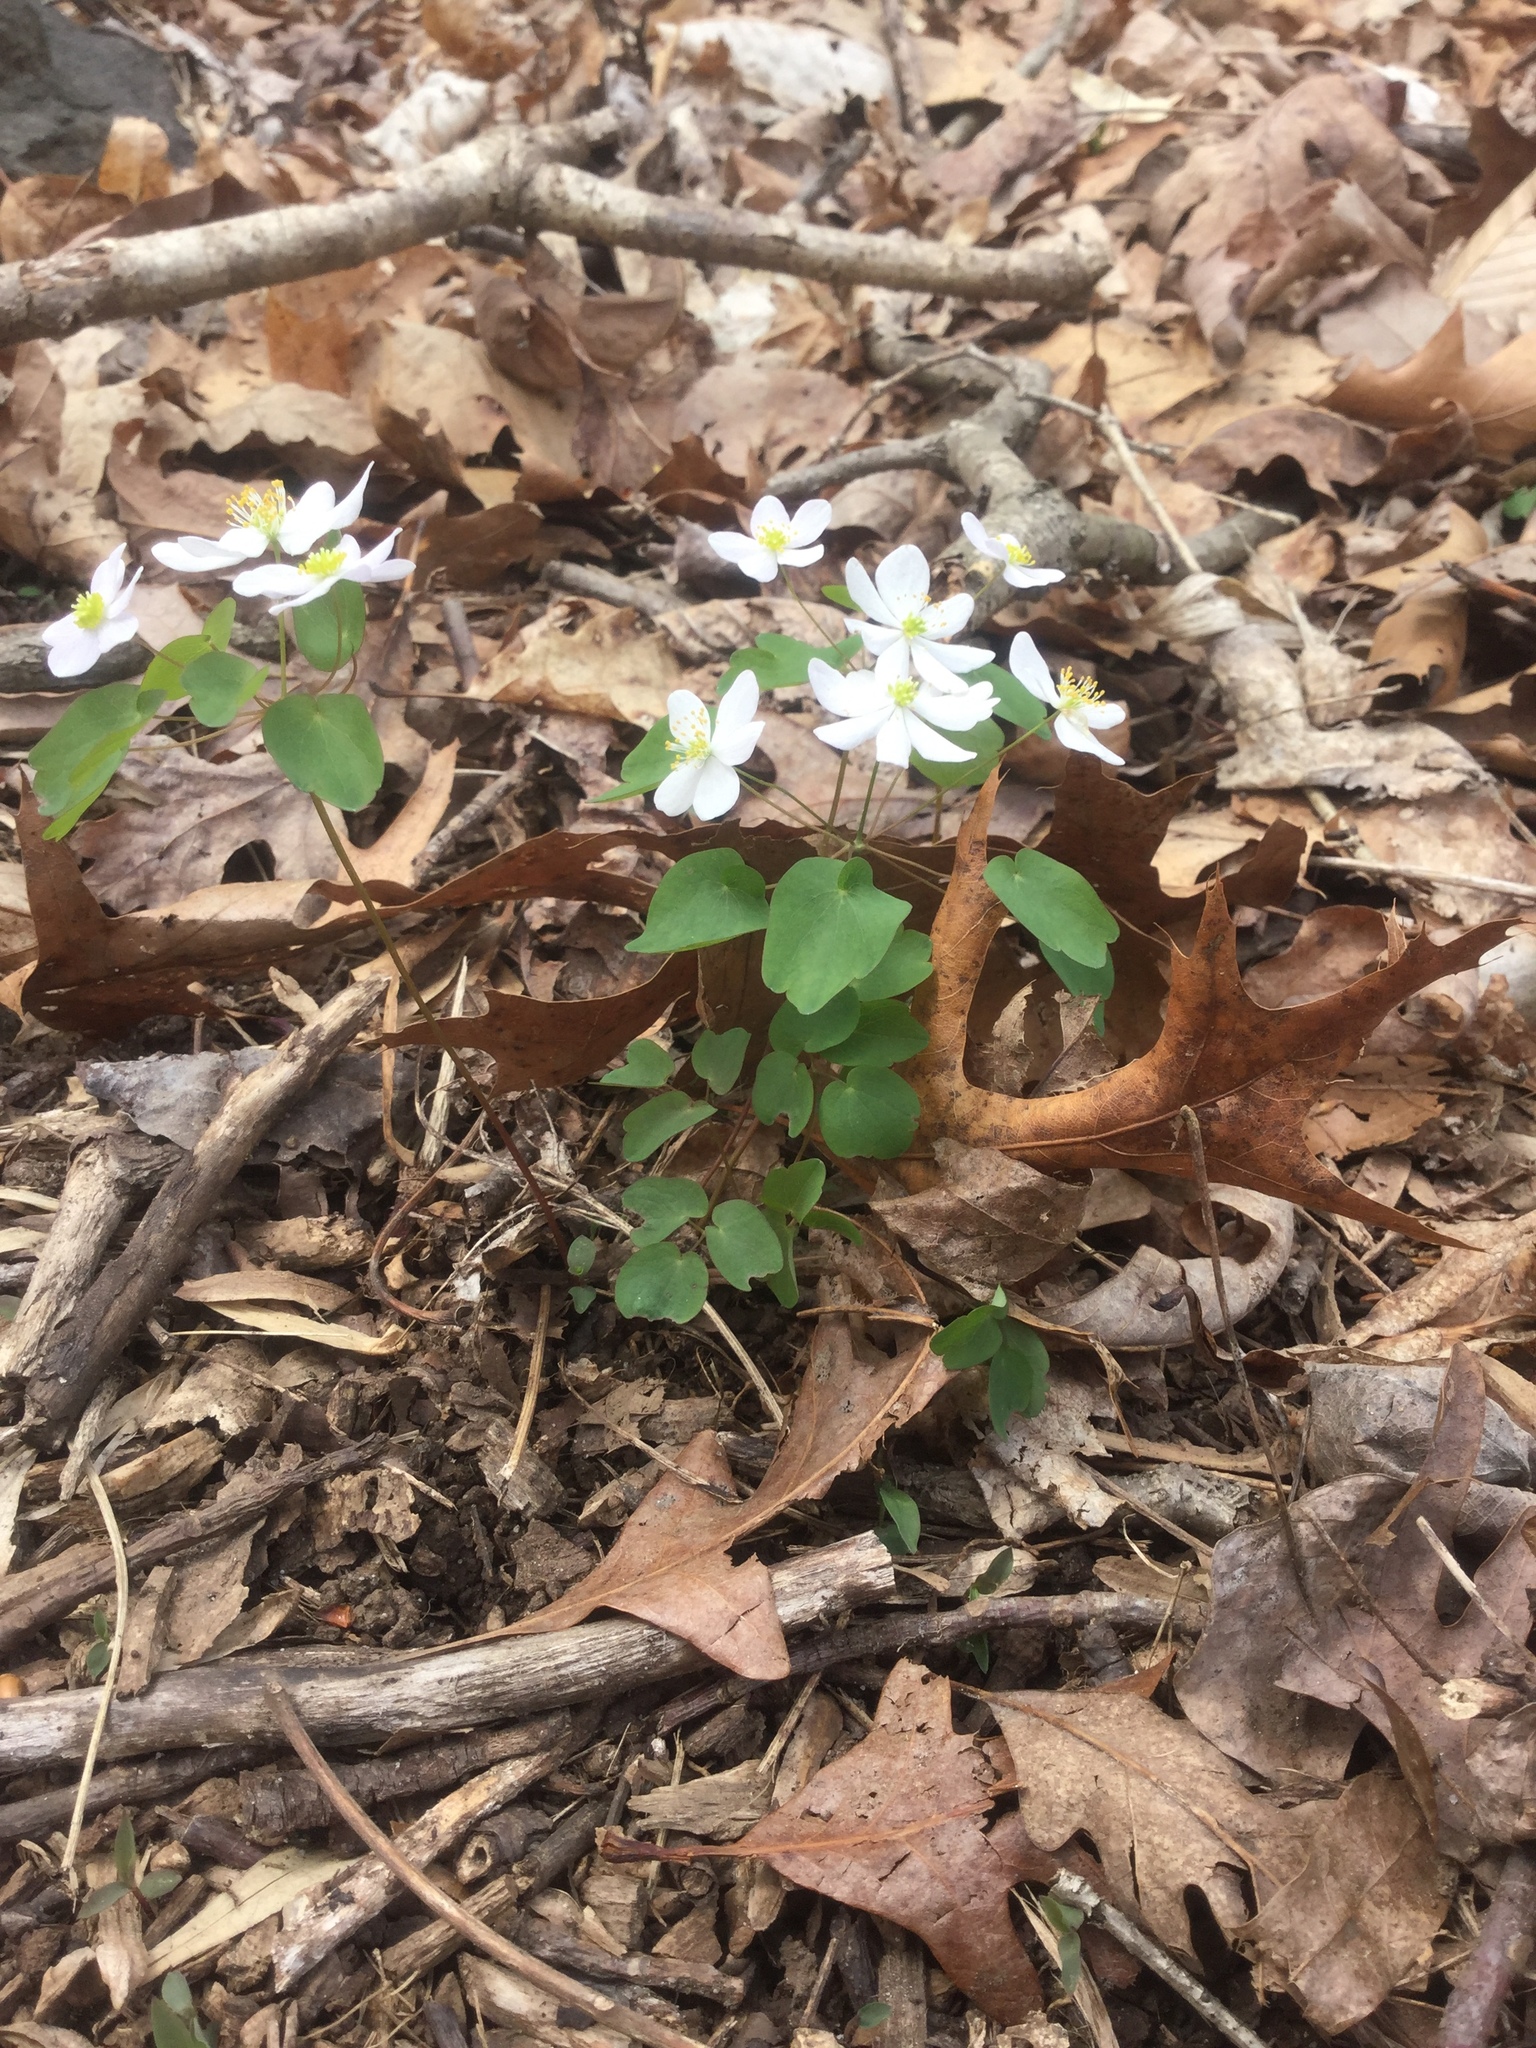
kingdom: Plantae
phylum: Tracheophyta
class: Magnoliopsida
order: Ranunculales
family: Ranunculaceae
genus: Thalictrum
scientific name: Thalictrum thalictroides
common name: Rue-anemone
